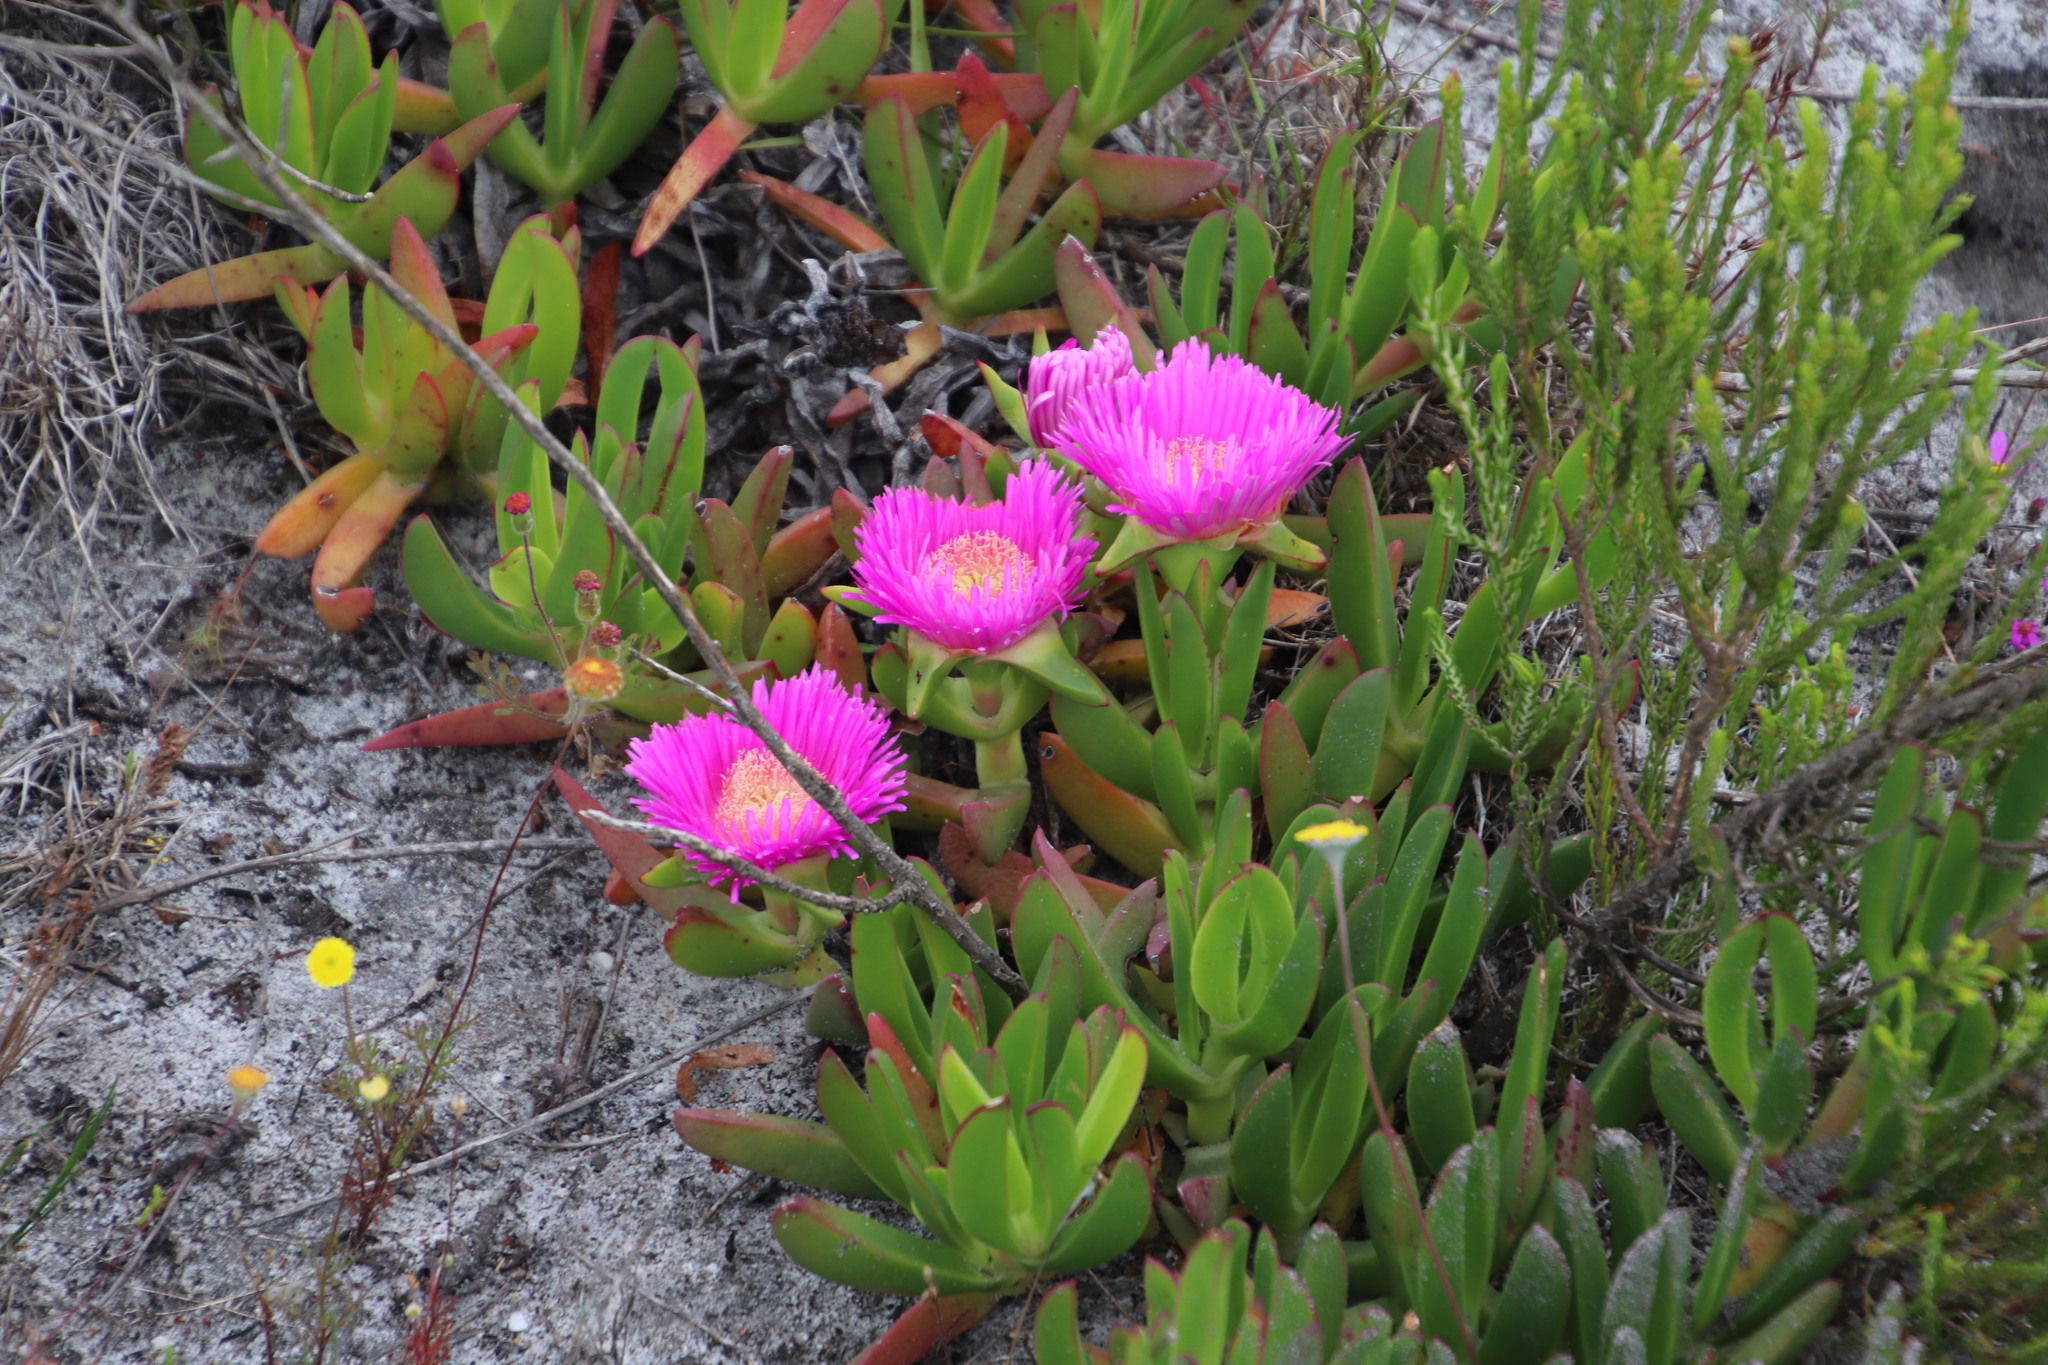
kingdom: Plantae
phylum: Tracheophyta
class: Magnoliopsida
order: Caryophyllales
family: Aizoaceae
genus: Carpobrotus
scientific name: Carpobrotus acinaciformis
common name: Sally-my-handsome
